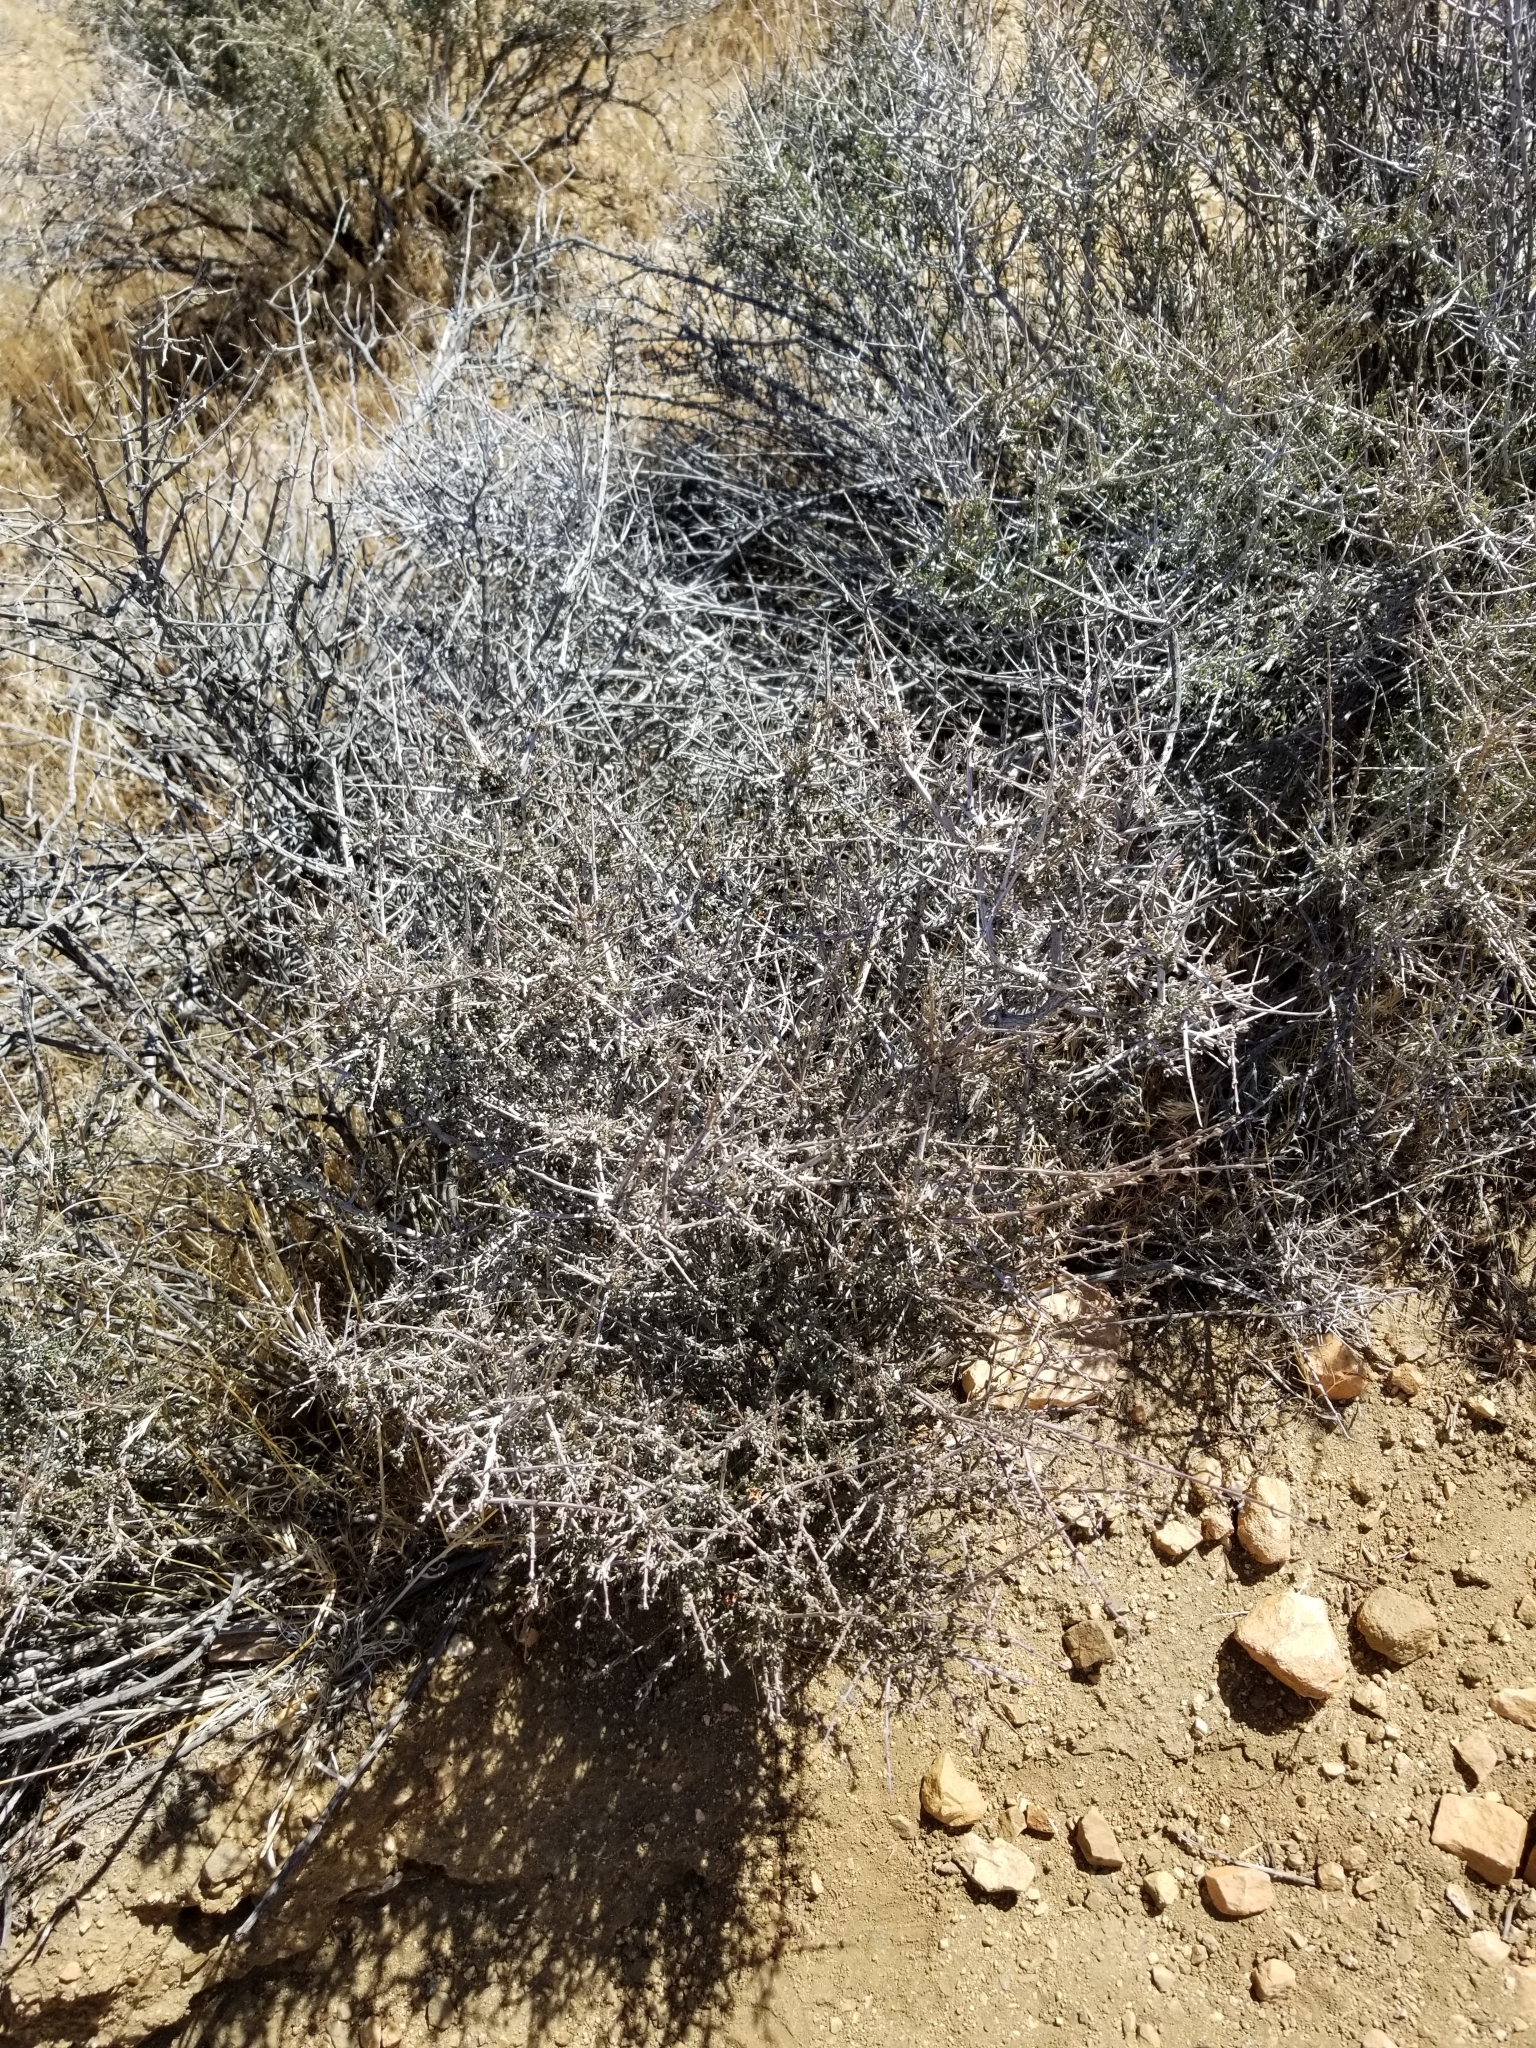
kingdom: Plantae
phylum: Tracheophyta
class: Magnoliopsida
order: Rosales
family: Rosaceae
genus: Prunus
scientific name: Prunus fasciculata
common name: Desert almond
